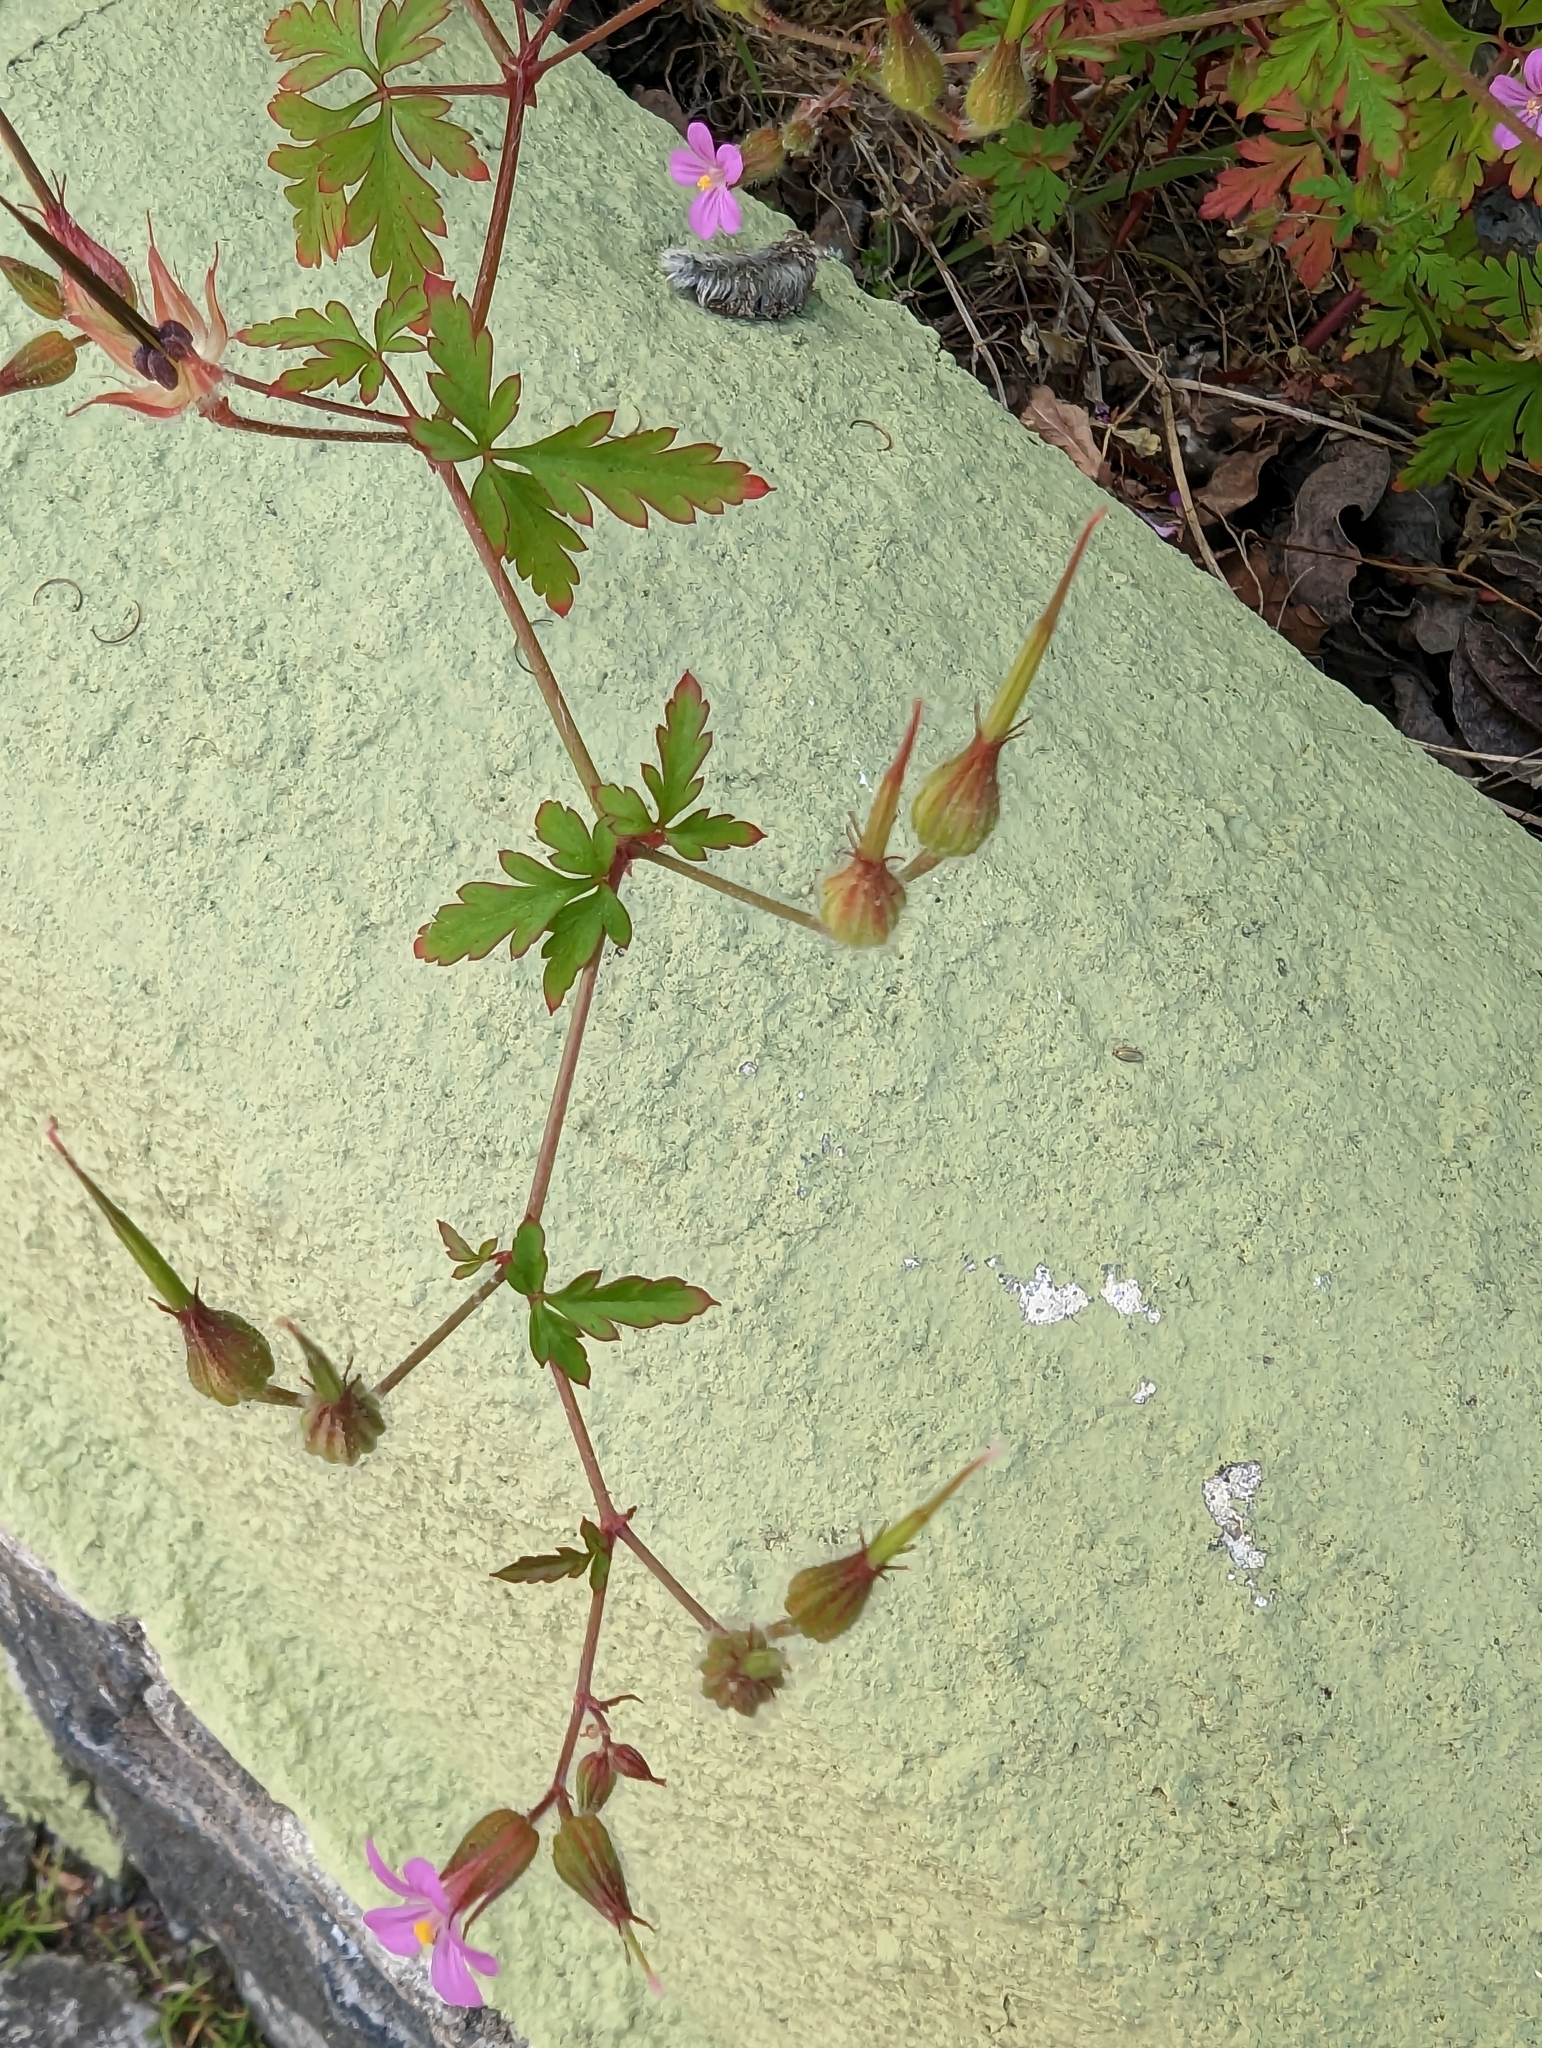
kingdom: Plantae
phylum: Tracheophyta
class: Magnoliopsida
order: Geraniales
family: Geraniaceae
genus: Geranium
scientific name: Geranium purpureum
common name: Little-robin
